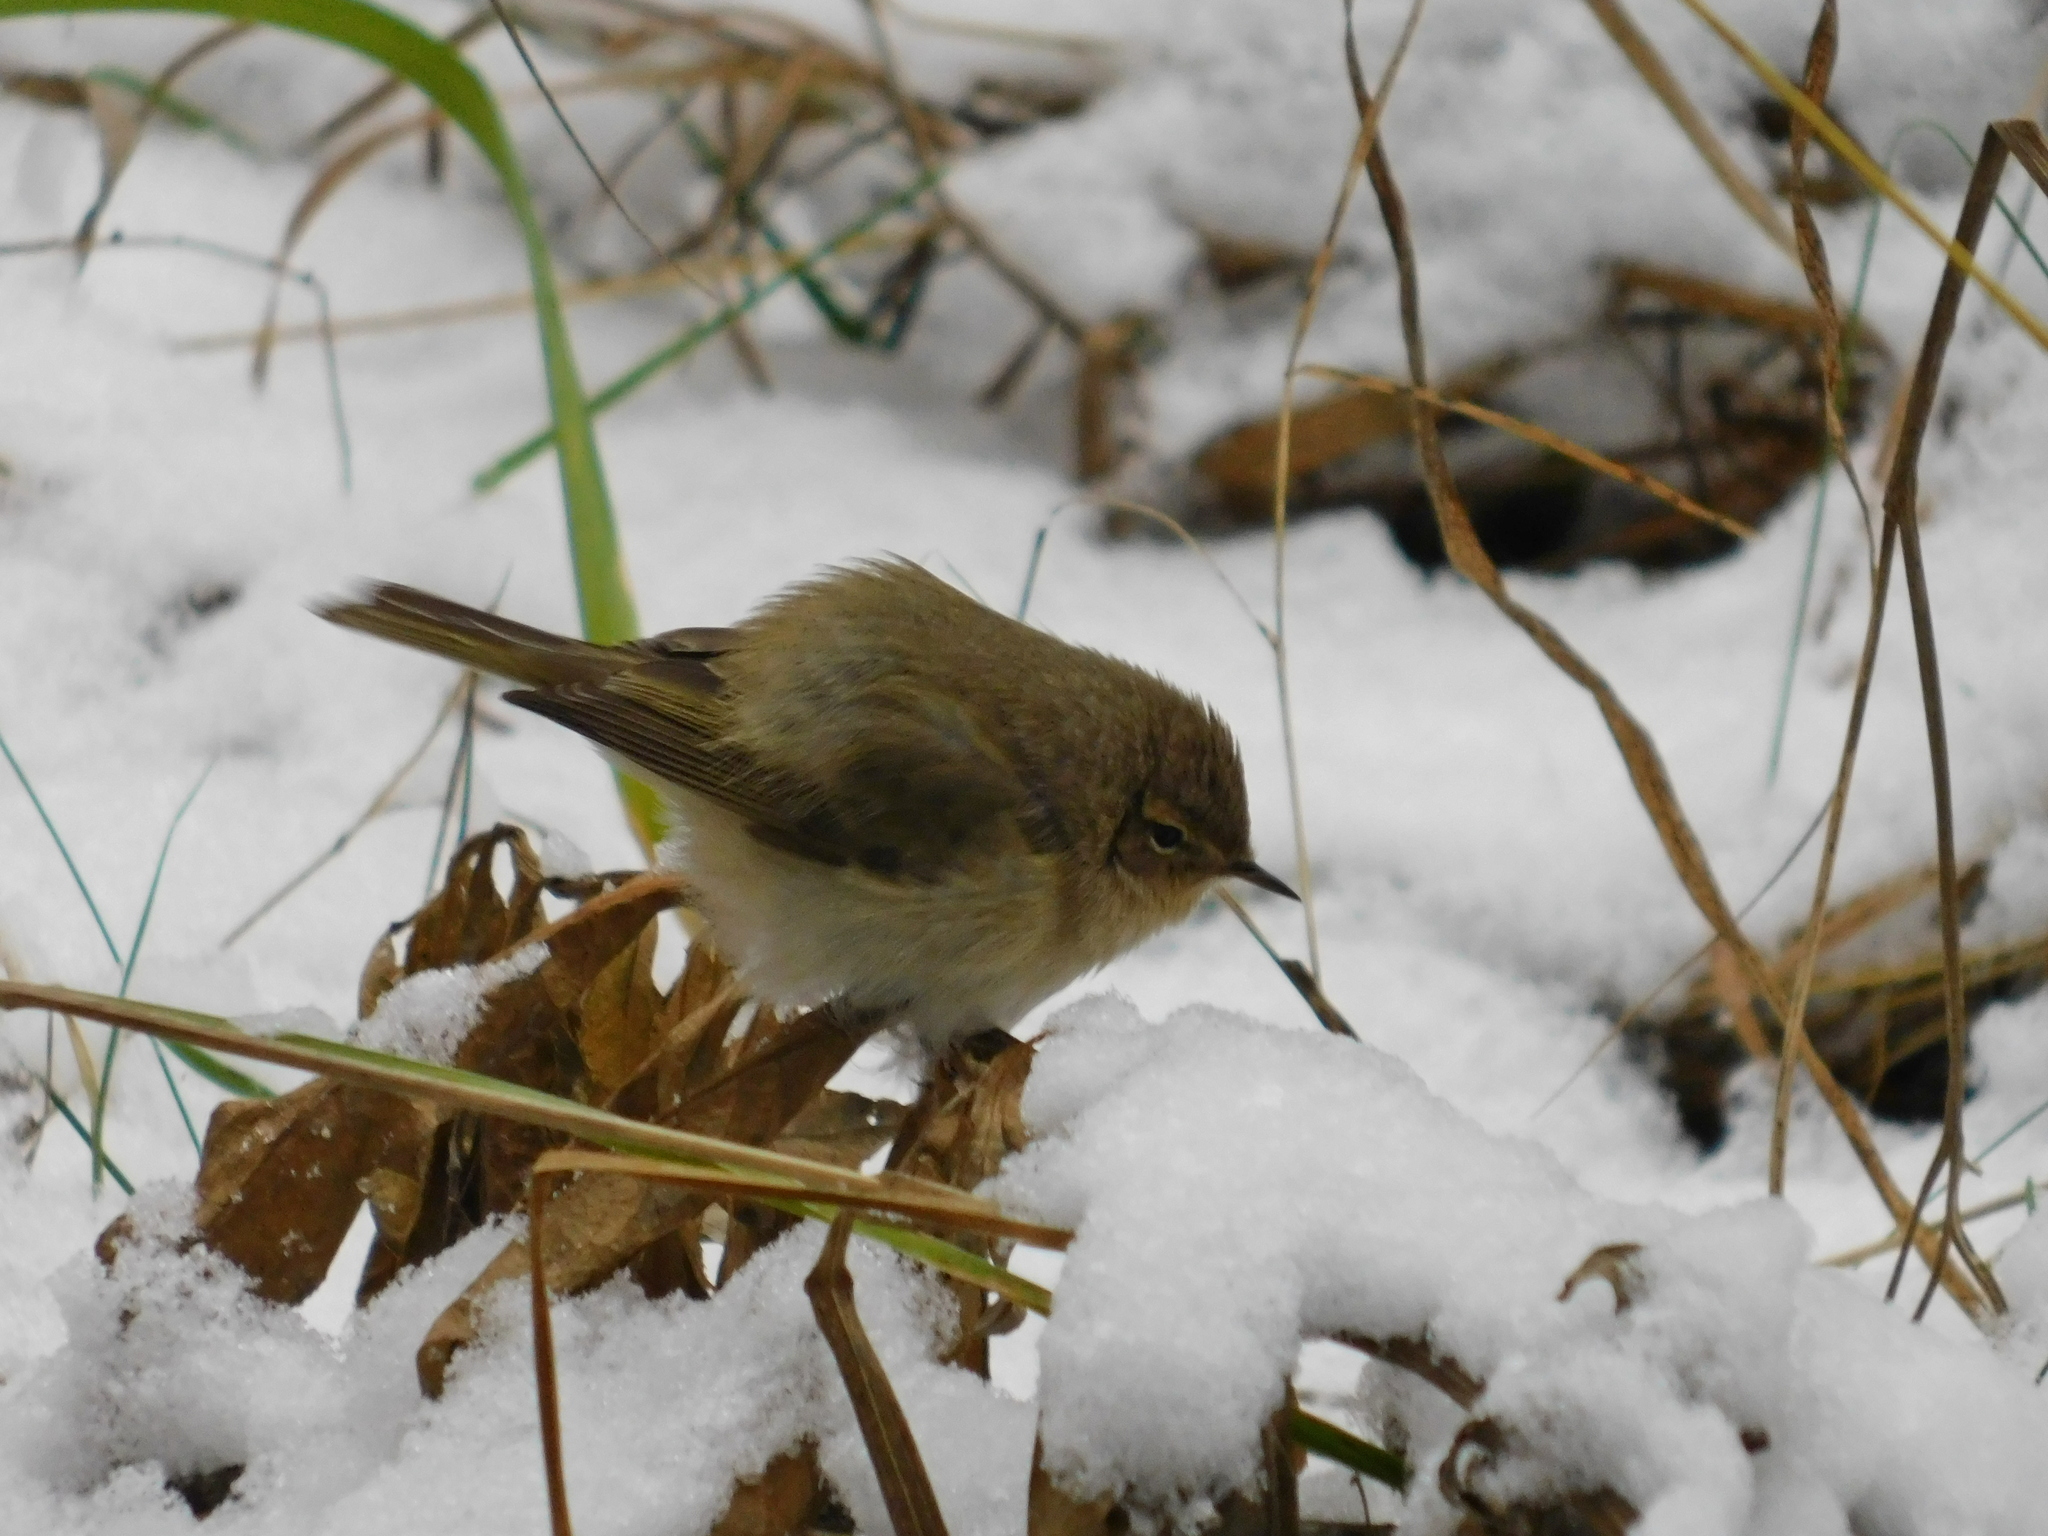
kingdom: Animalia
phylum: Chordata
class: Aves
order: Passeriformes
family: Phylloscopidae
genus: Phylloscopus
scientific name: Phylloscopus trochilus
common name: Willow warbler
